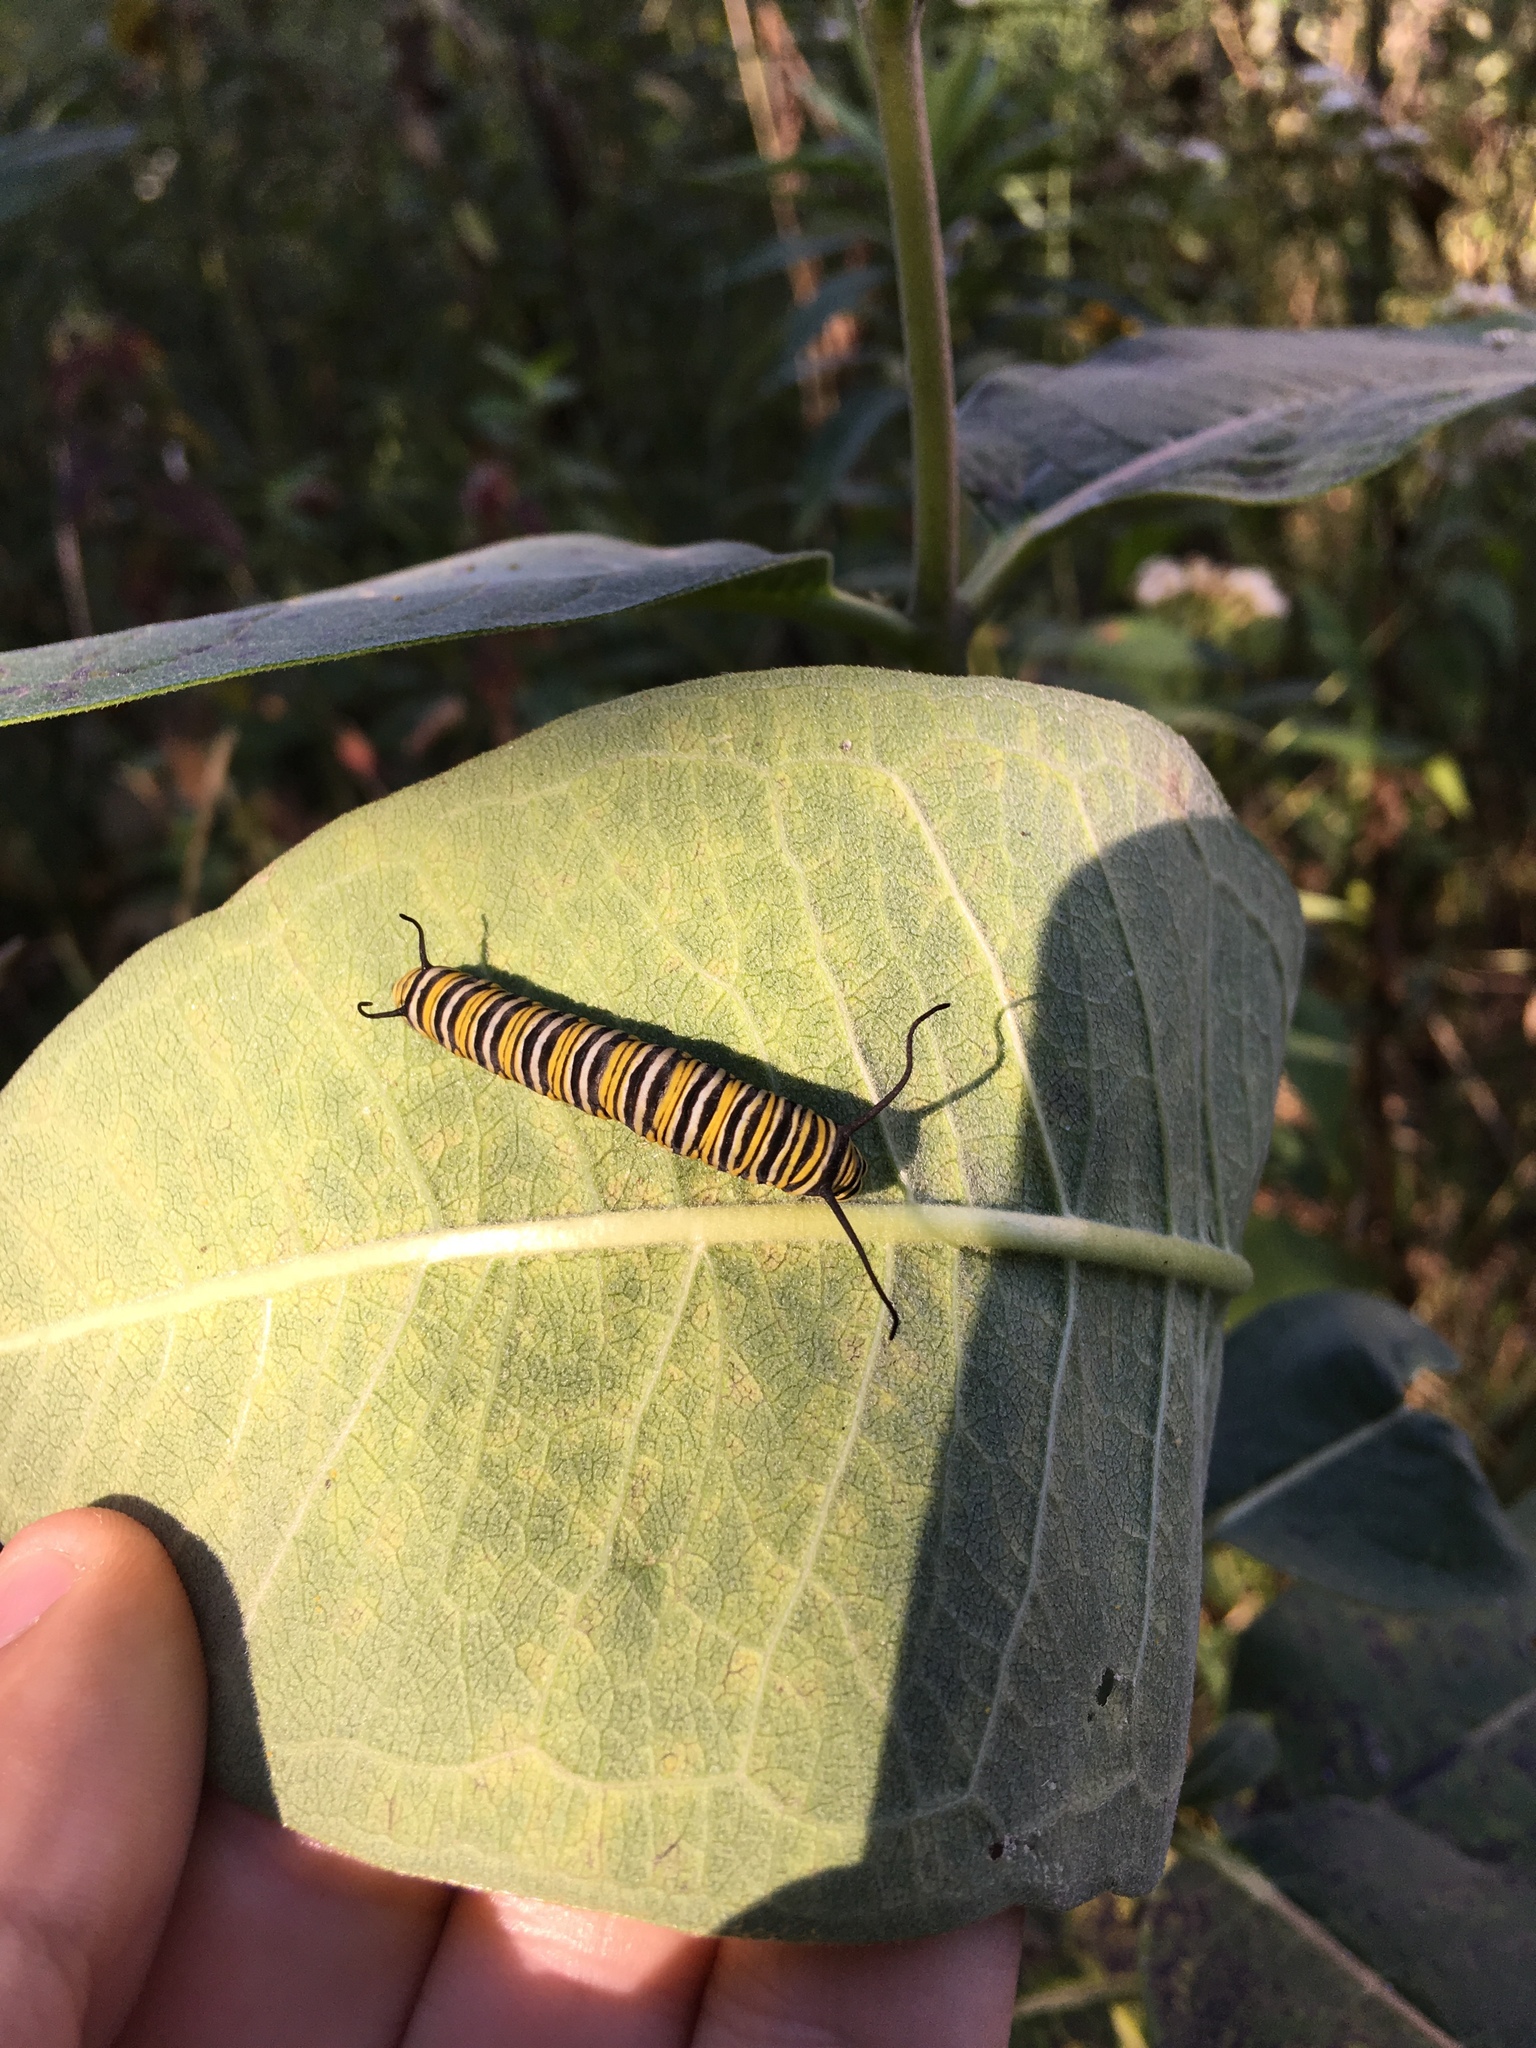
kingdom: Animalia
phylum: Arthropoda
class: Insecta
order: Lepidoptera
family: Nymphalidae
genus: Danaus
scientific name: Danaus plexippus
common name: Monarch
